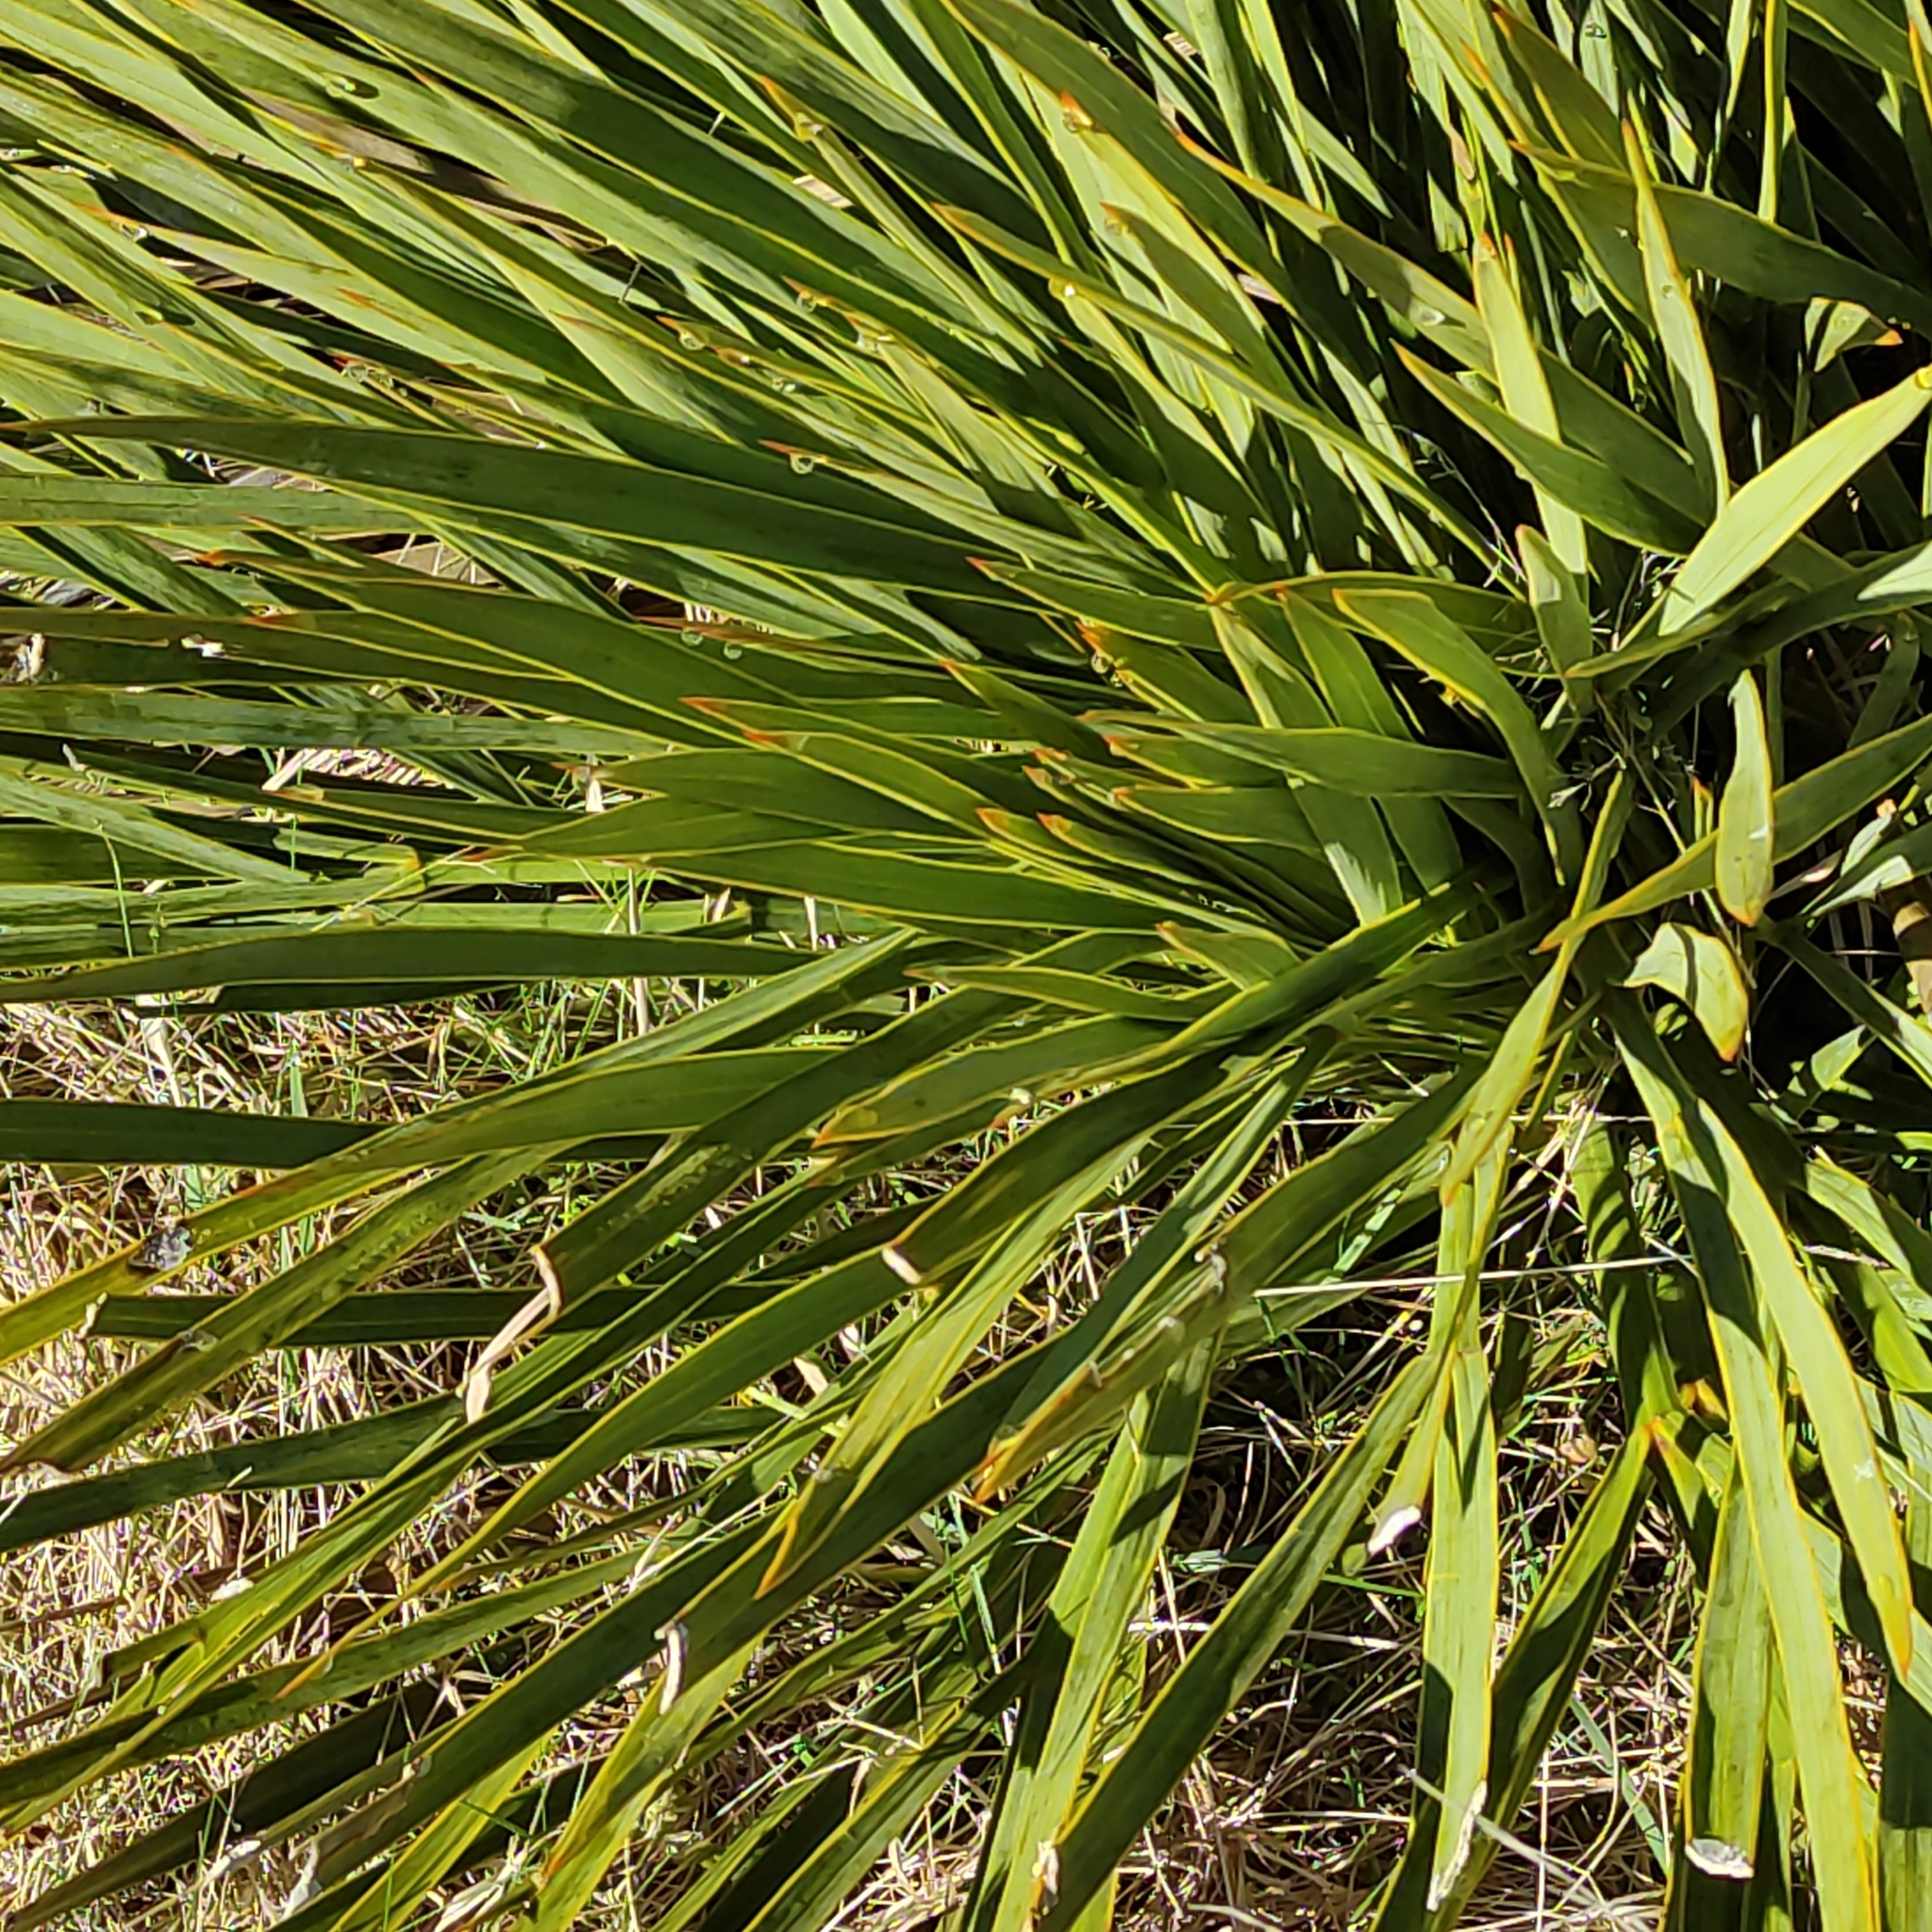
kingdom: Plantae
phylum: Tracheophyta
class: Magnoliopsida
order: Apiales
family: Apiaceae
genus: Aciphylla
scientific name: Aciphylla aurea
